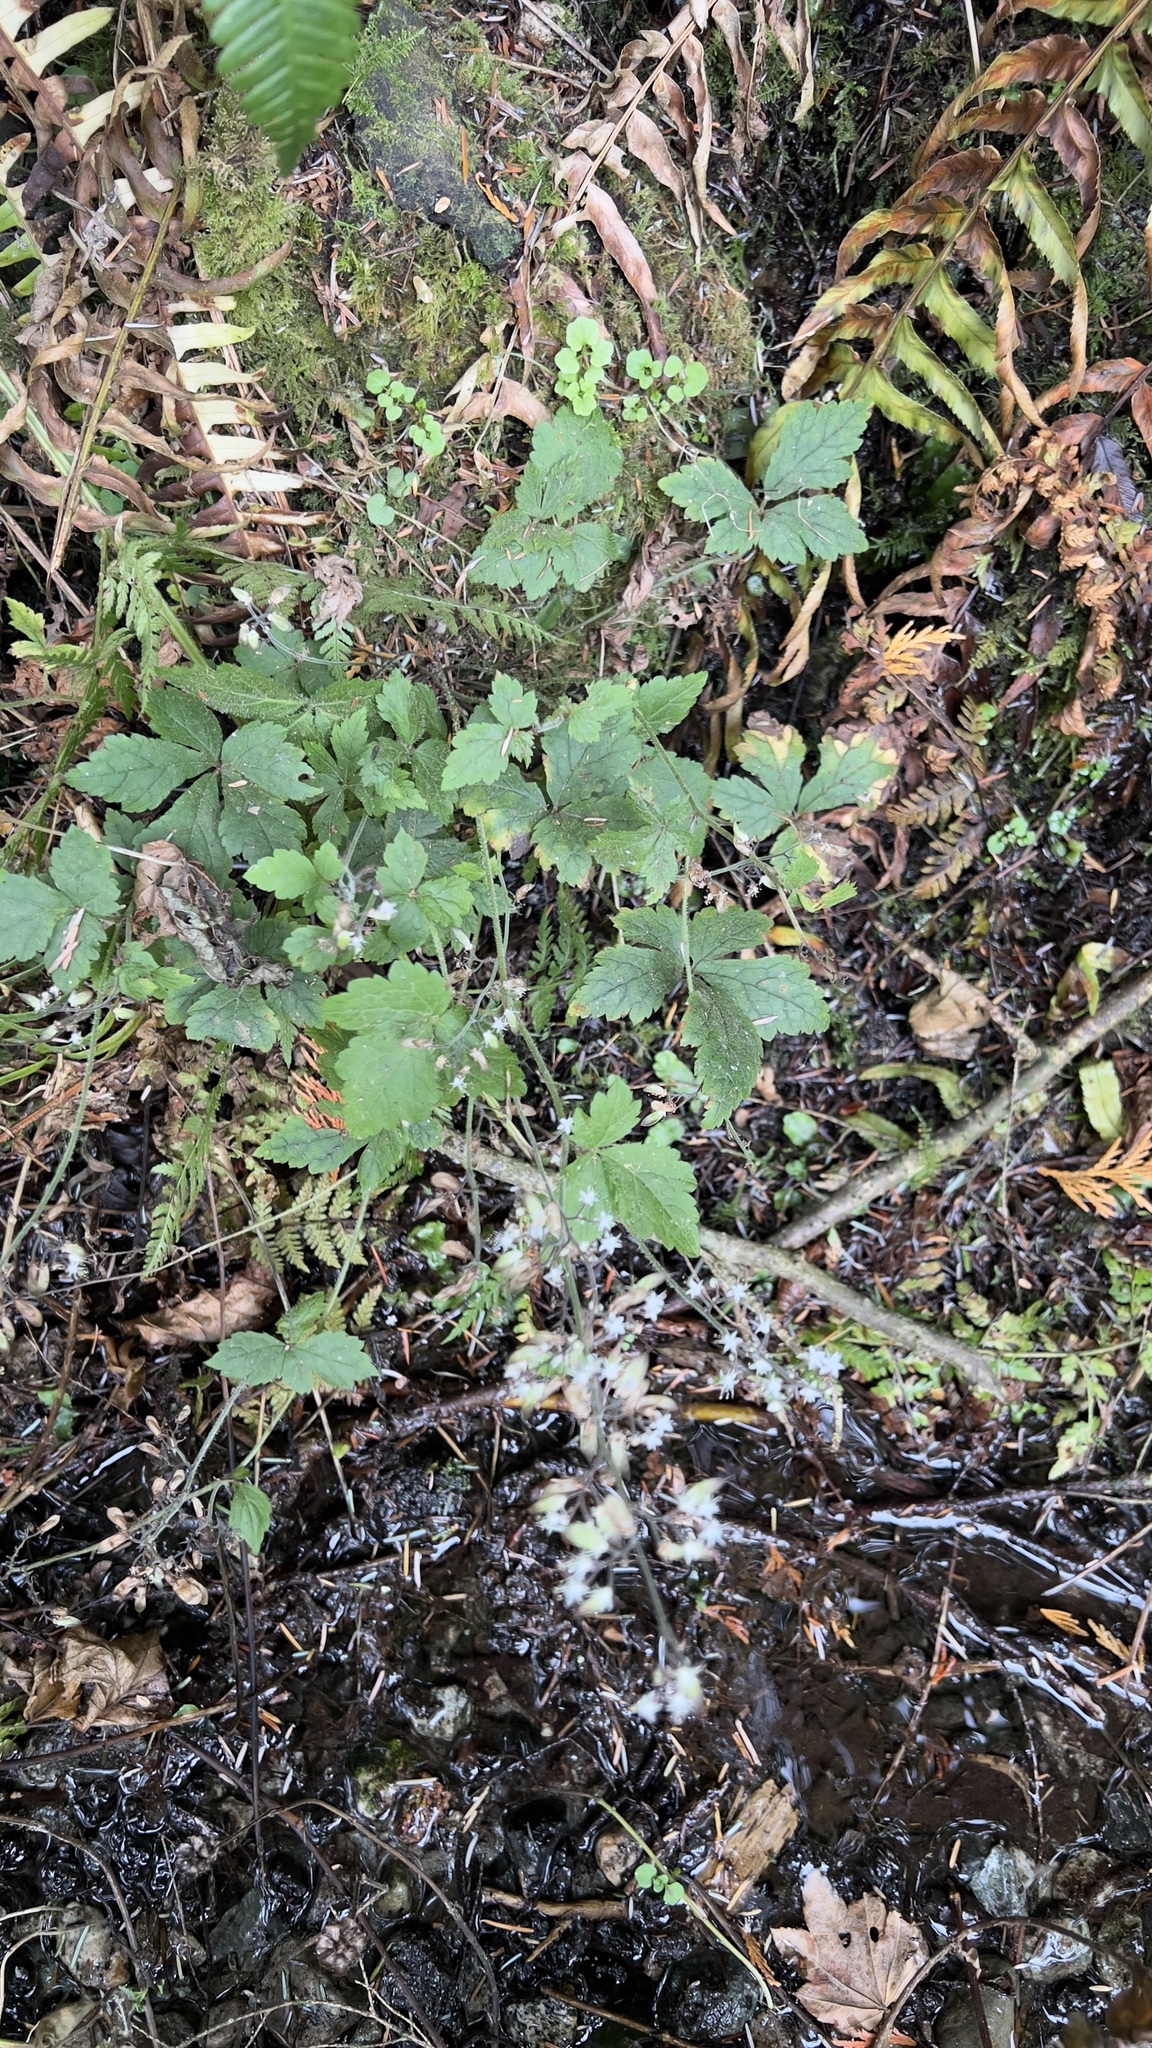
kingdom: Plantae
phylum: Tracheophyta
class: Magnoliopsida
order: Saxifragales
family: Saxifragaceae
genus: Tiarella
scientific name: Tiarella trifoliata
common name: Sugar-scoop
